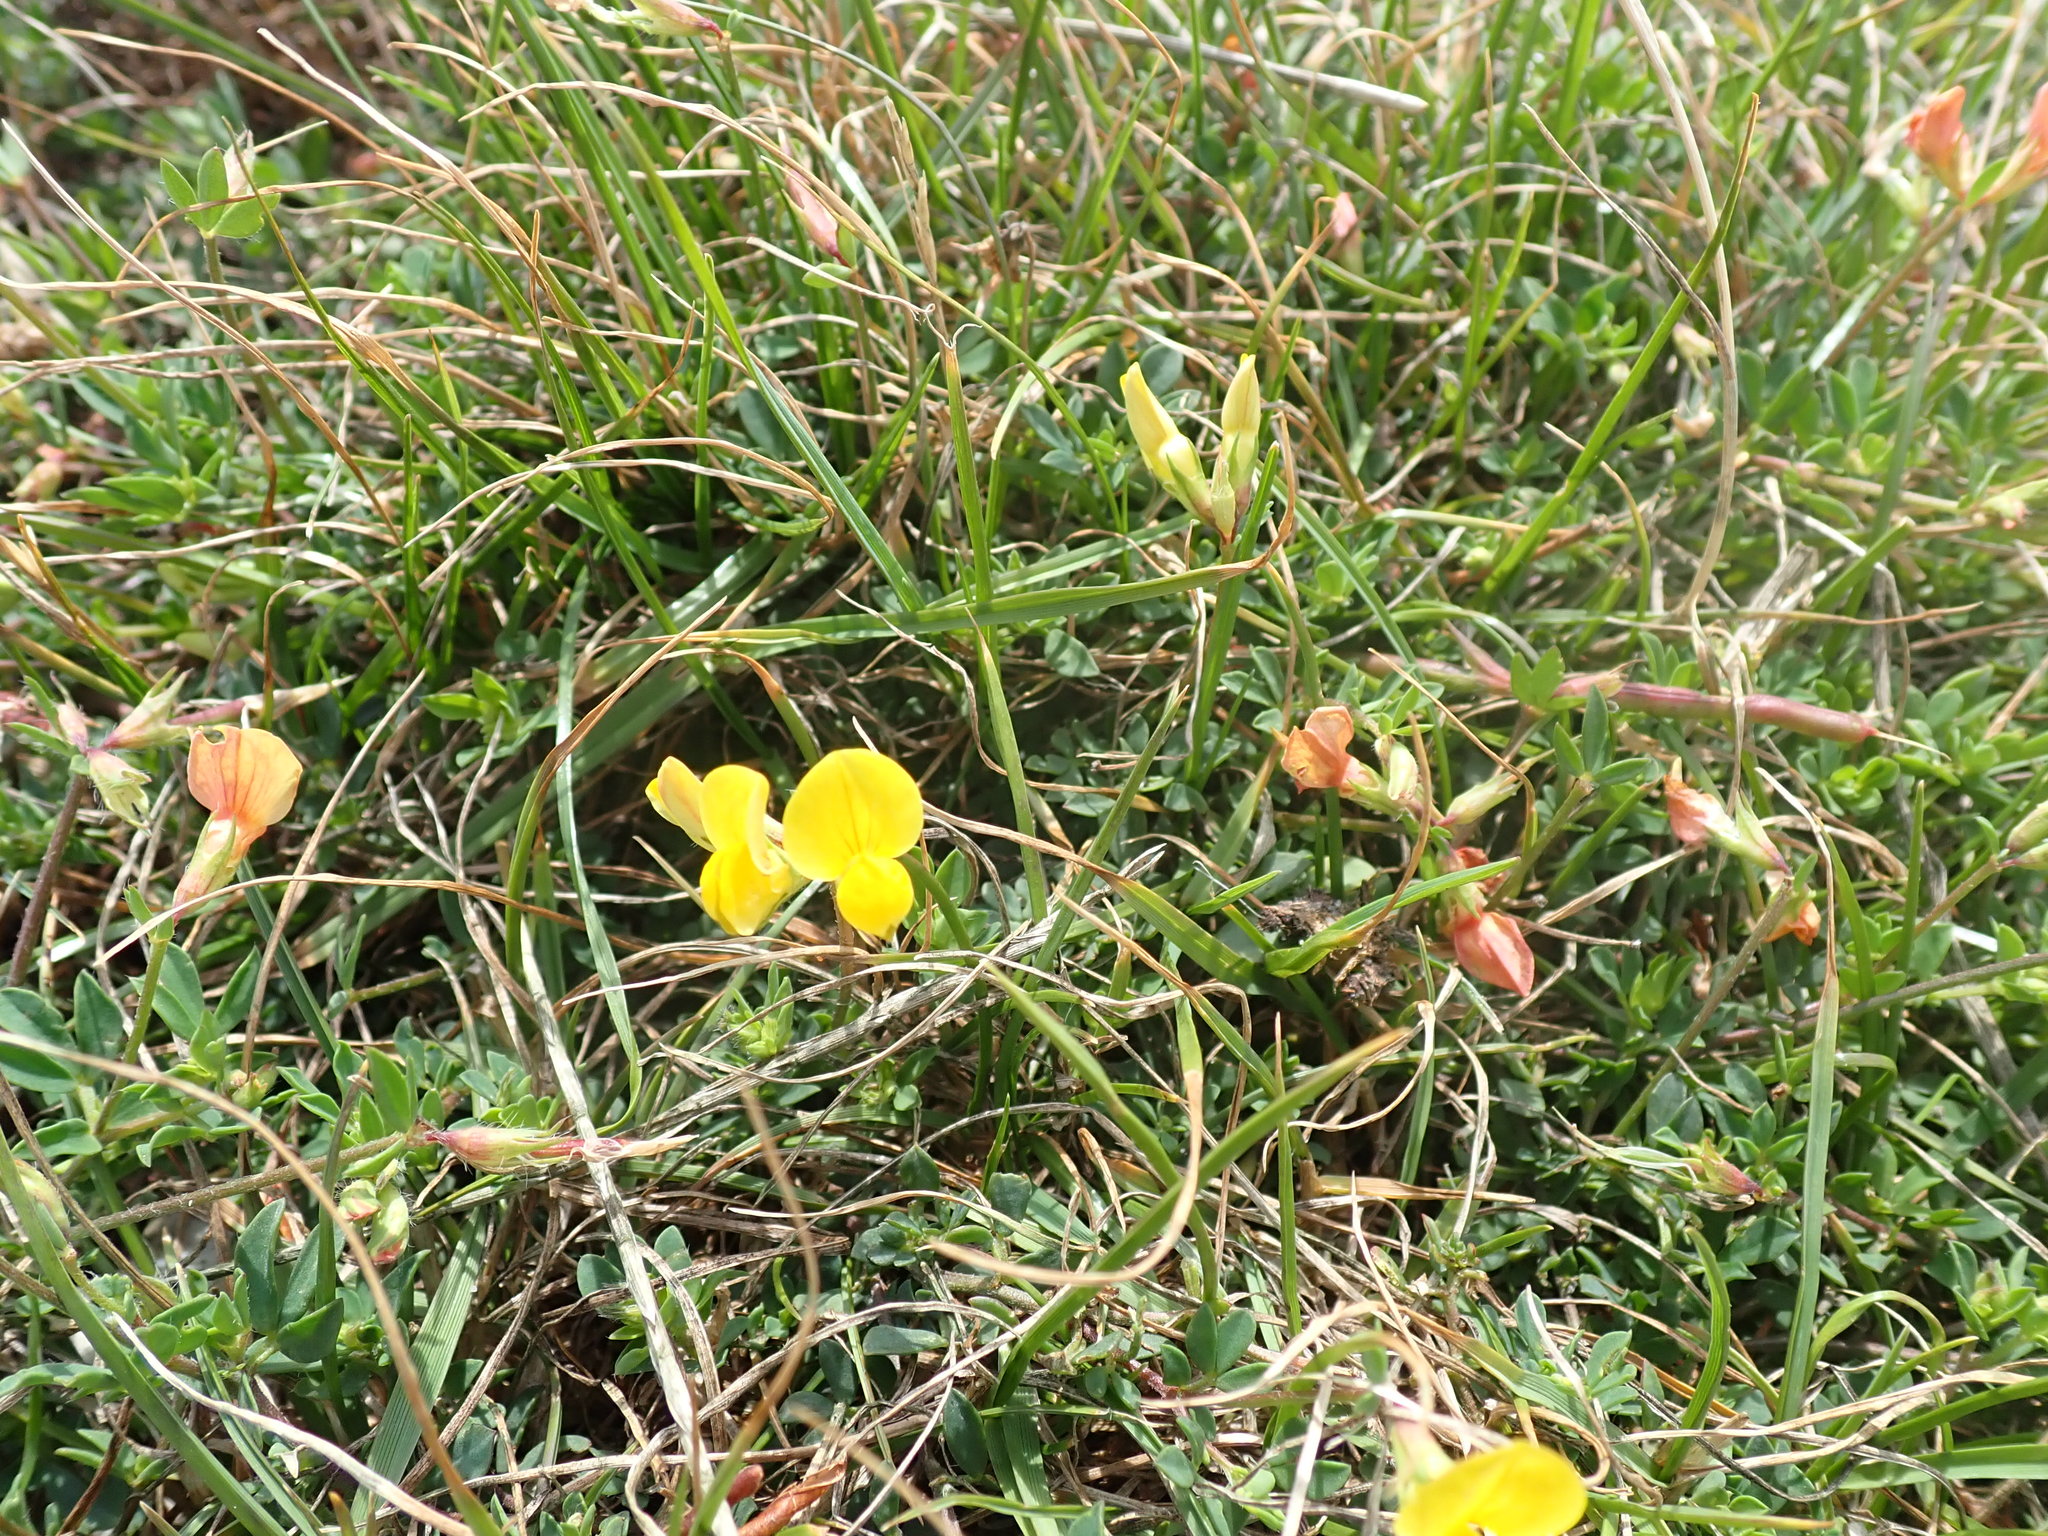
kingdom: Plantae
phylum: Tracheophyta
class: Magnoliopsida
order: Fabales
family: Fabaceae
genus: Lotus
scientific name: Lotus corniculatus
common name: Common bird's-foot-trefoil
